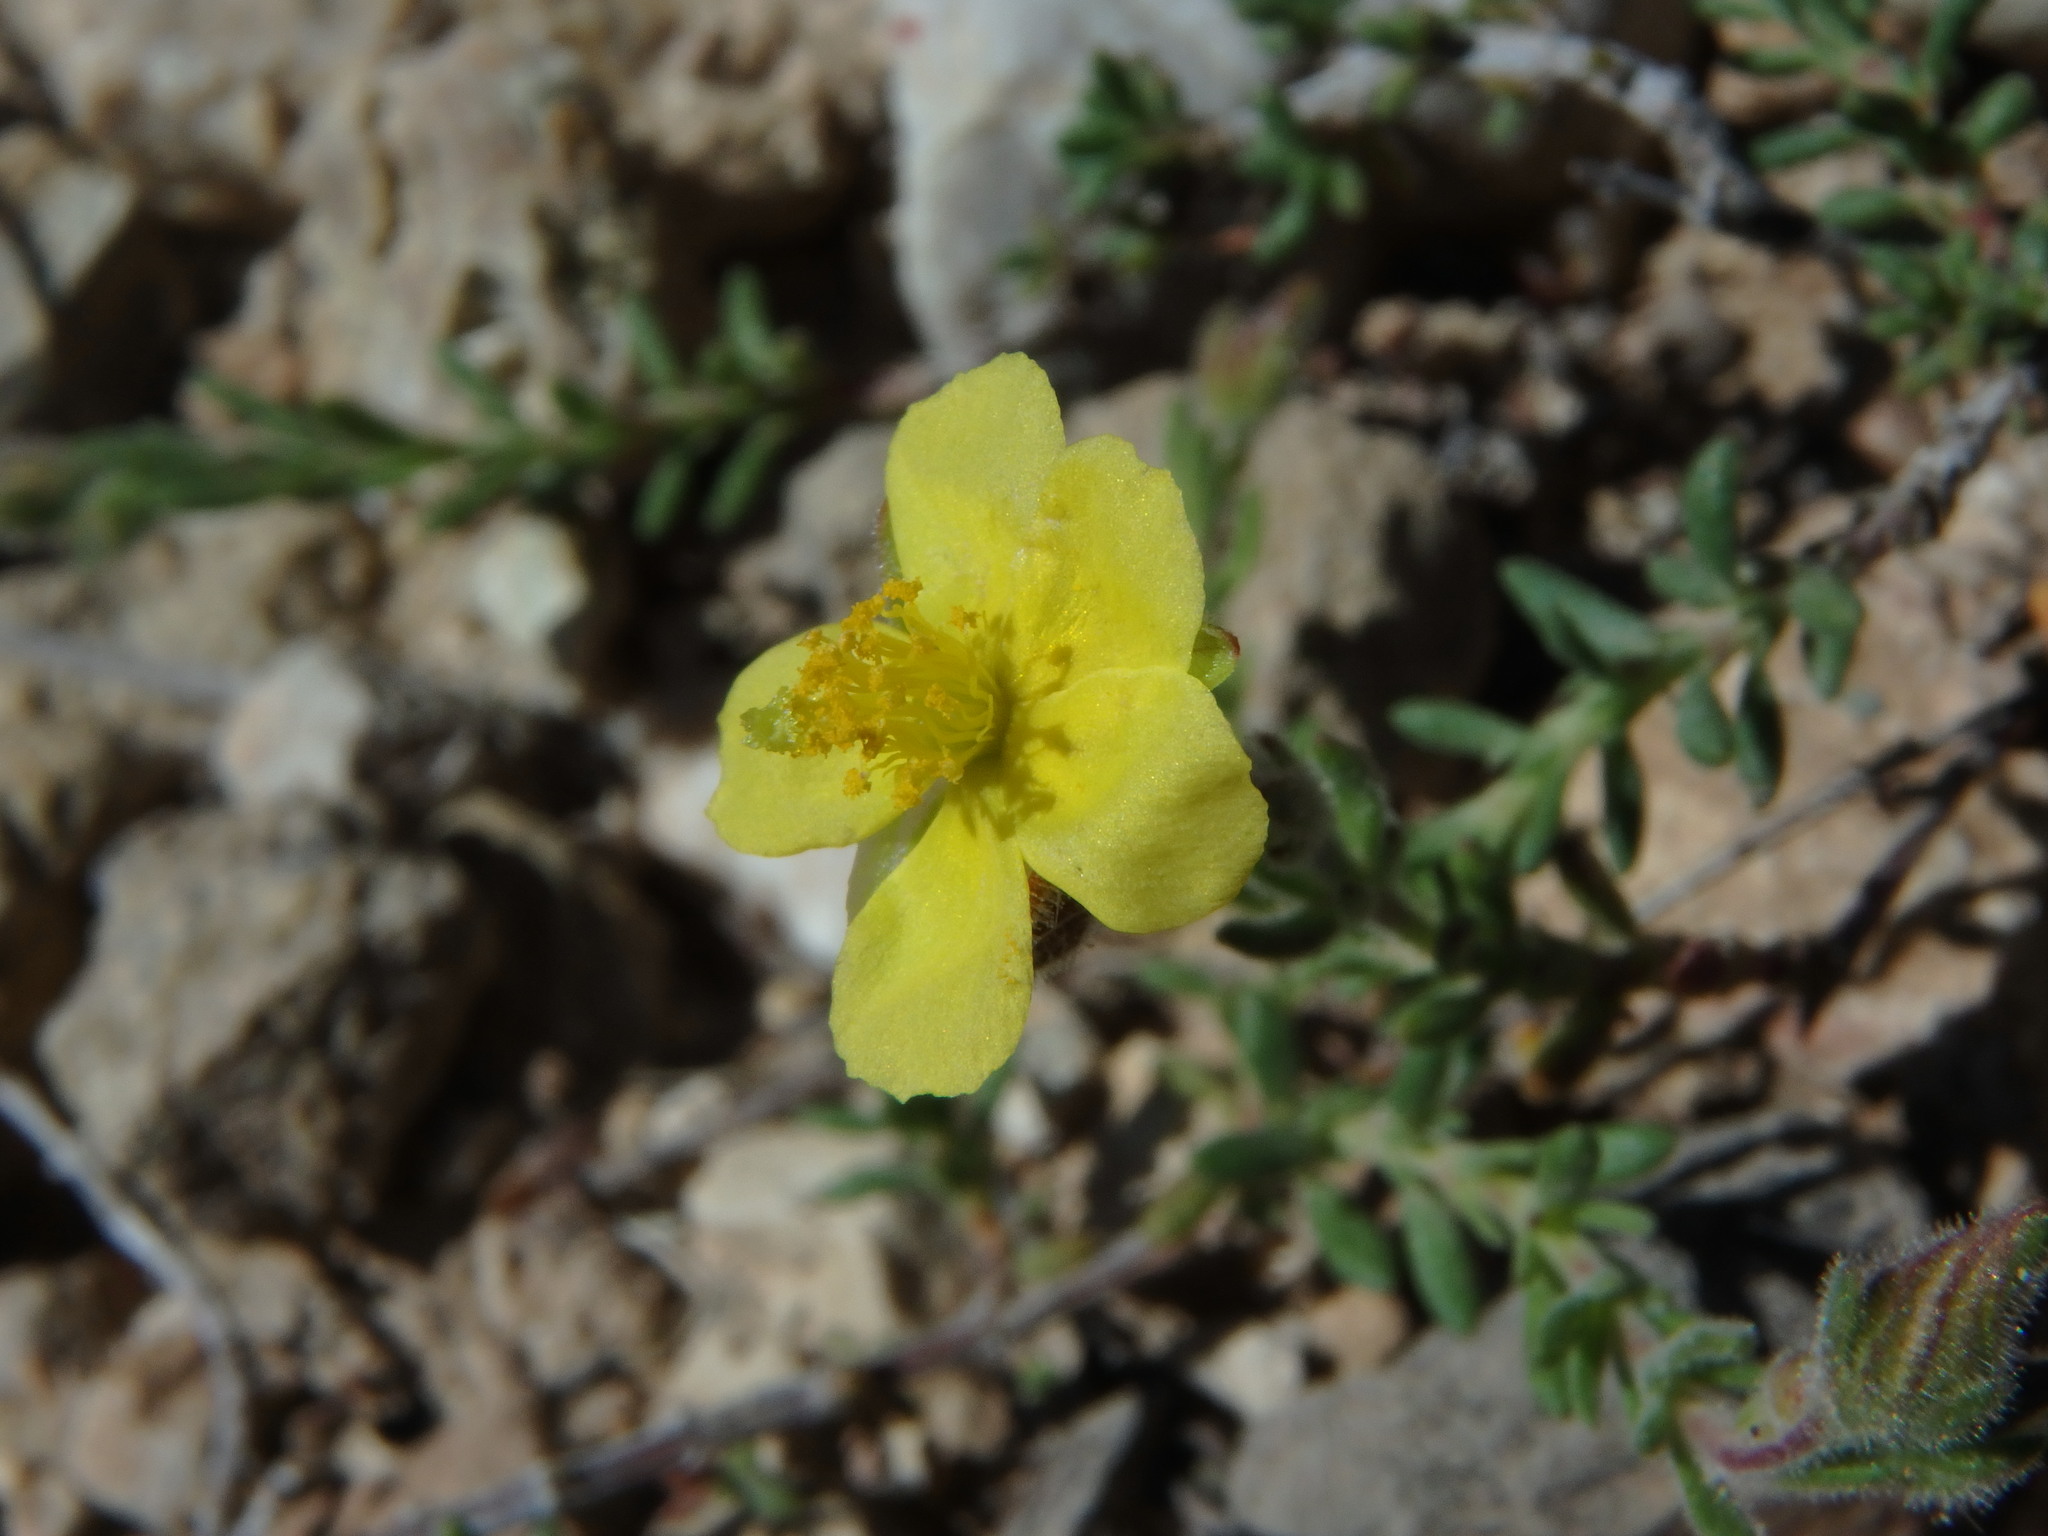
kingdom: Plantae
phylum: Tracheophyta
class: Magnoliopsida
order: Malvales
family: Cistaceae
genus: Fumana
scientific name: Fumana thymifolia
